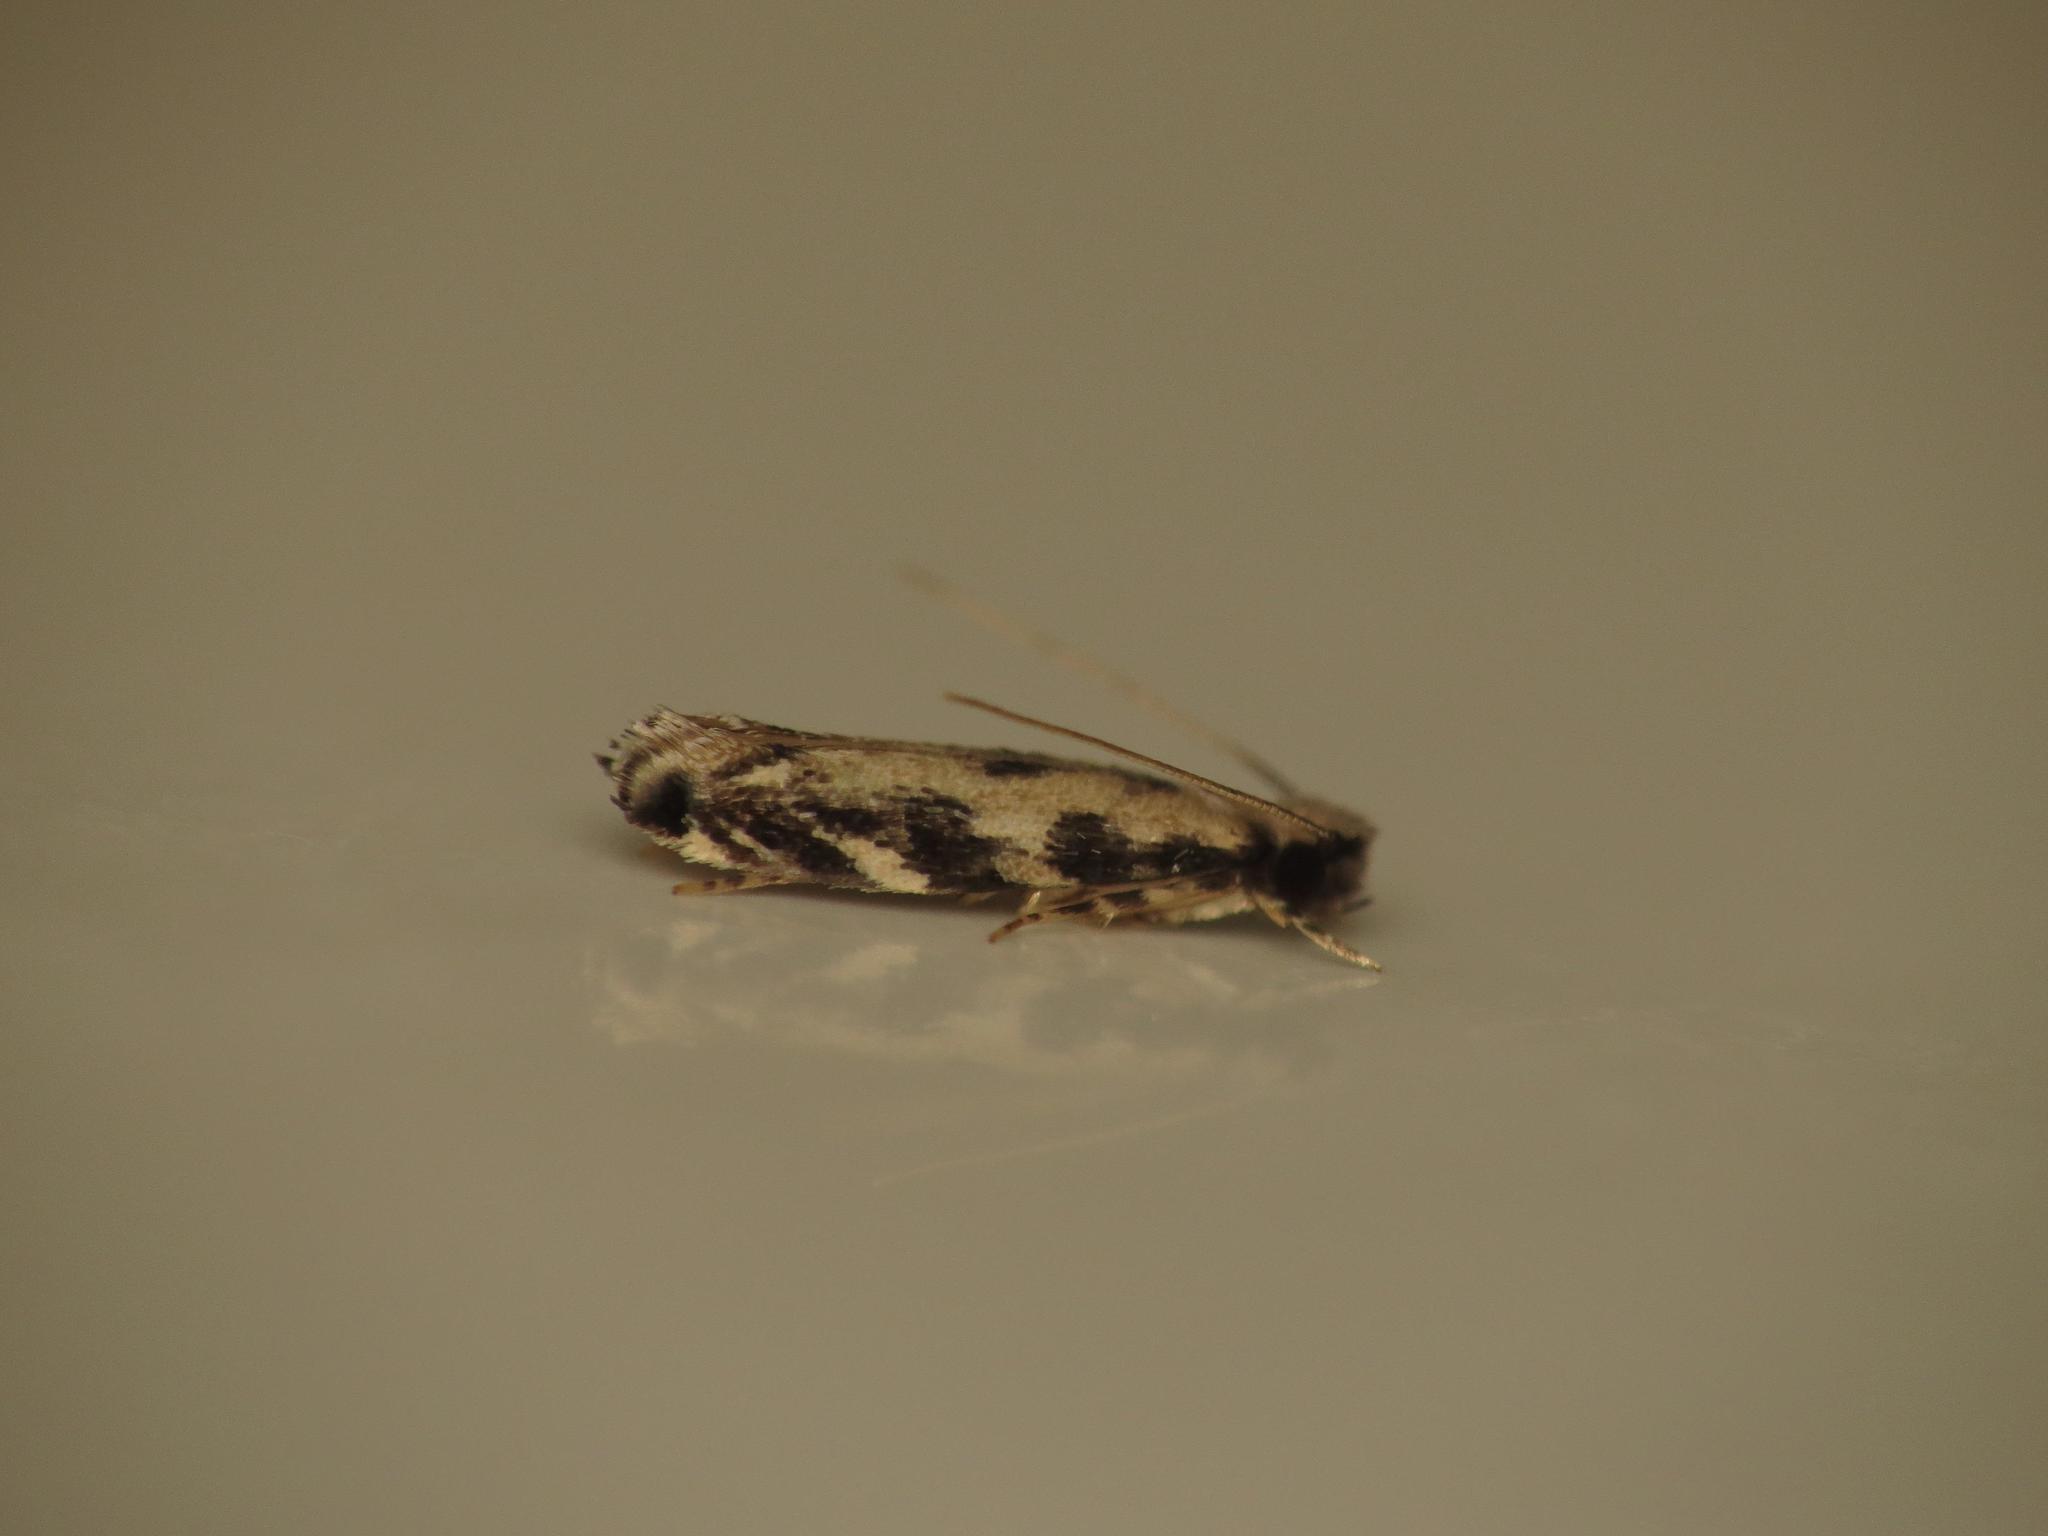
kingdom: Animalia
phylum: Arthropoda
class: Insecta
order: Lepidoptera
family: Tineidae
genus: Erechthias
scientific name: Erechthias zebrina
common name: Fungus moth
